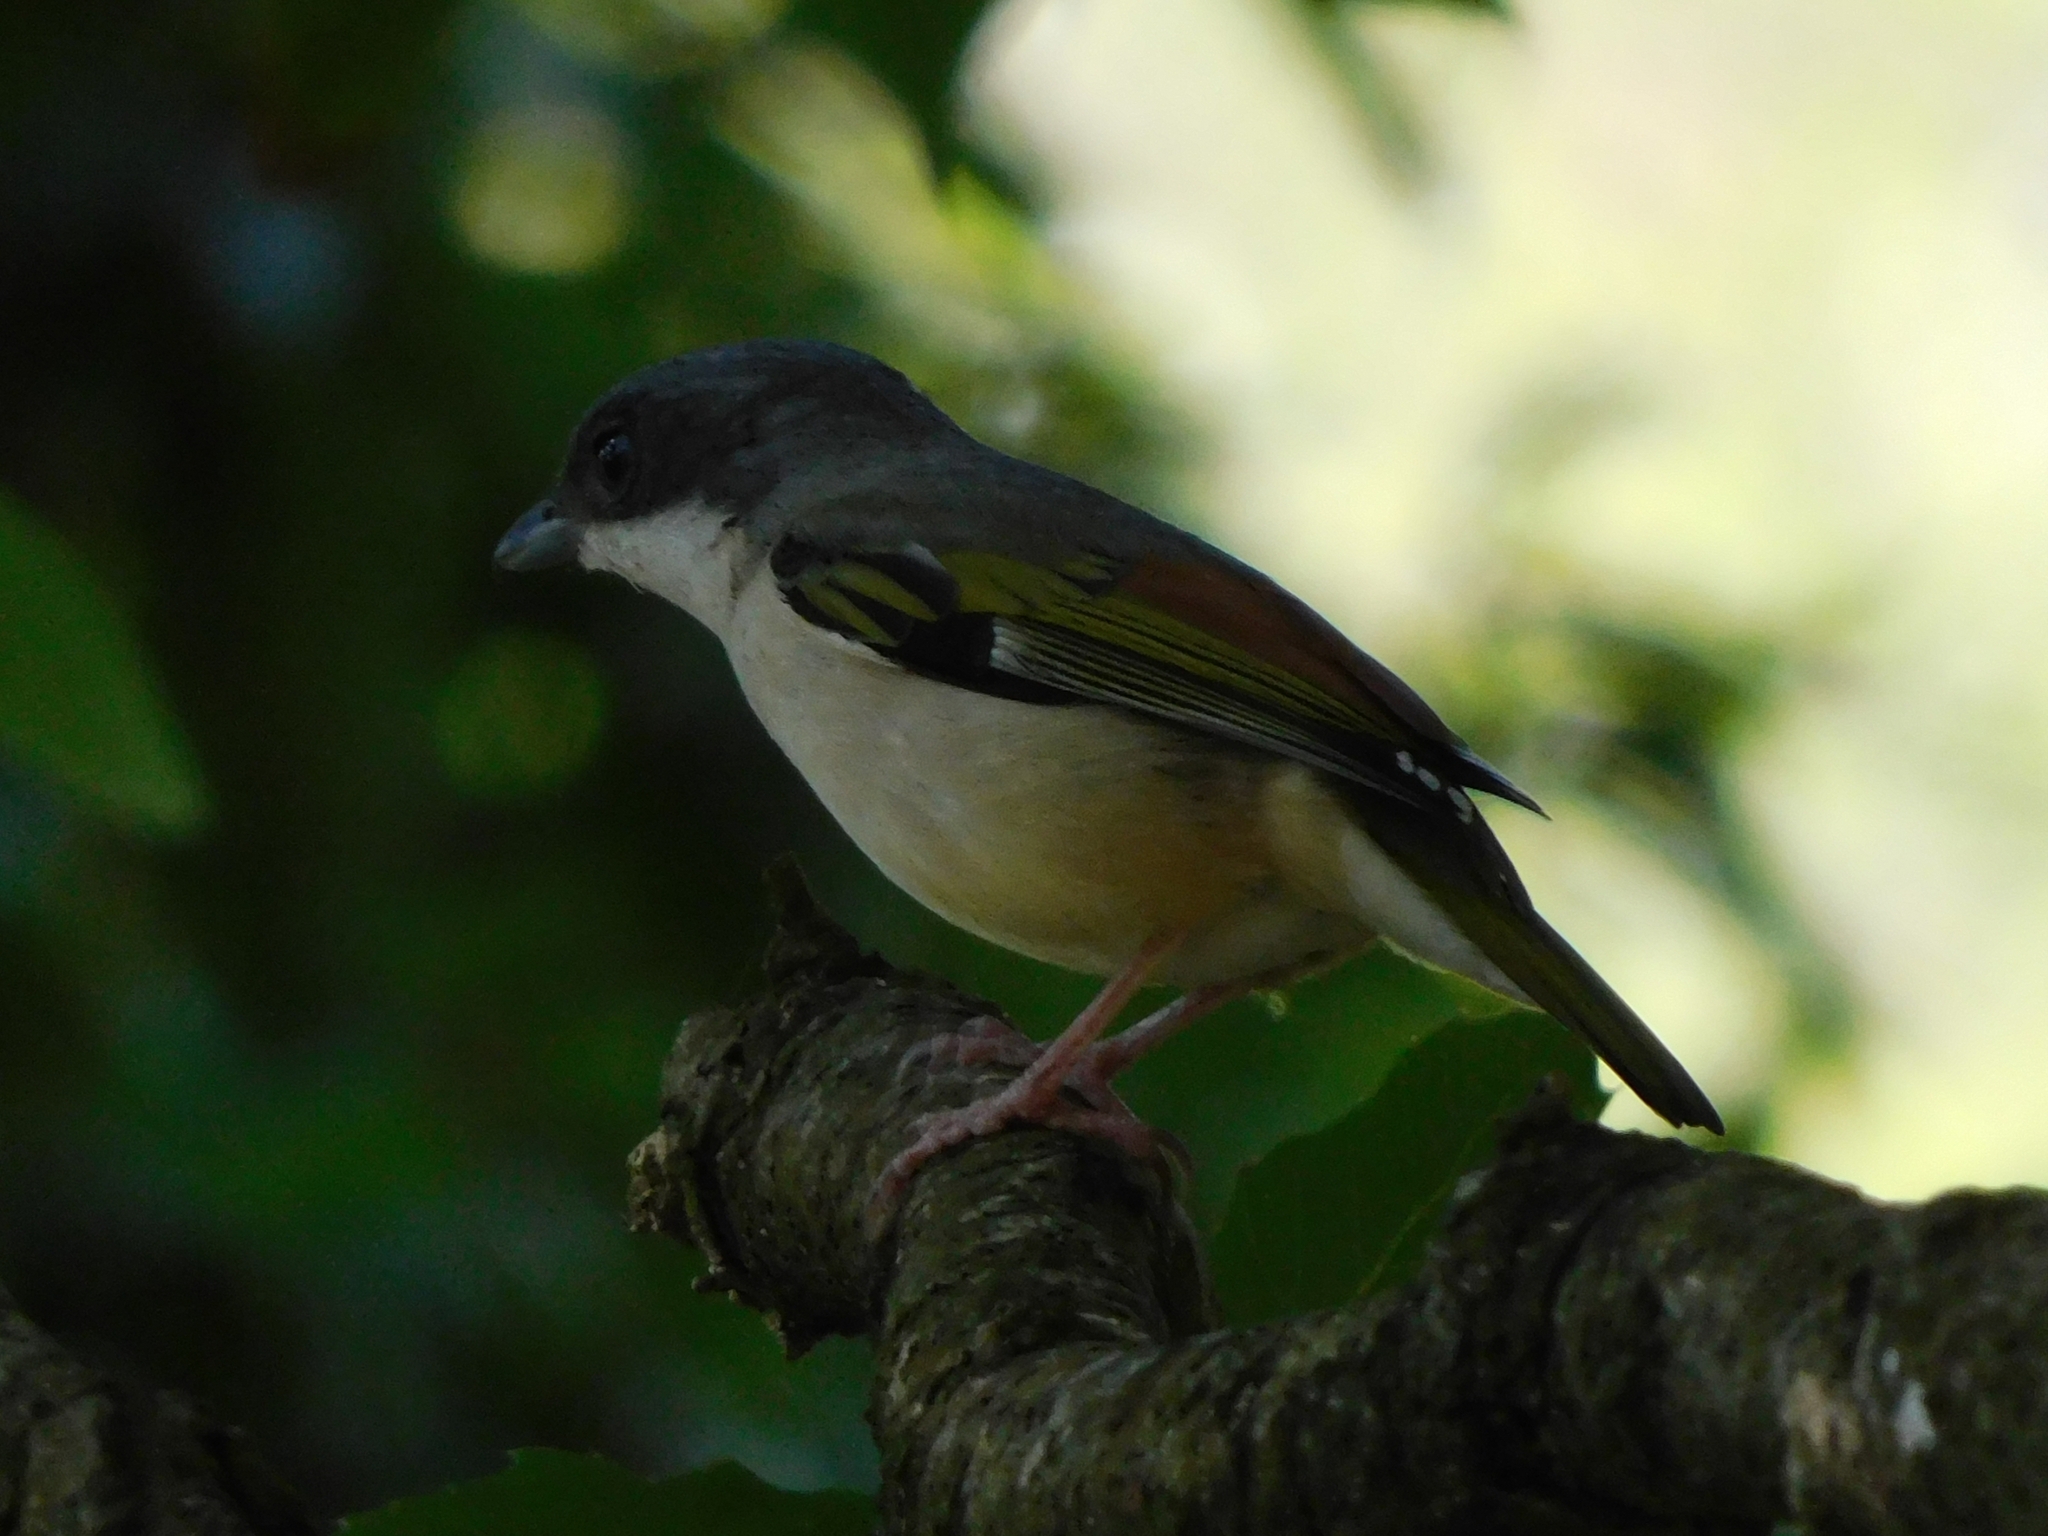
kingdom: Animalia
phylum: Chordata
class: Aves
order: Passeriformes
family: Vireonidae
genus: Pteruthius
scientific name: Pteruthius aeralatus
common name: Blyth's shrike-babbler
